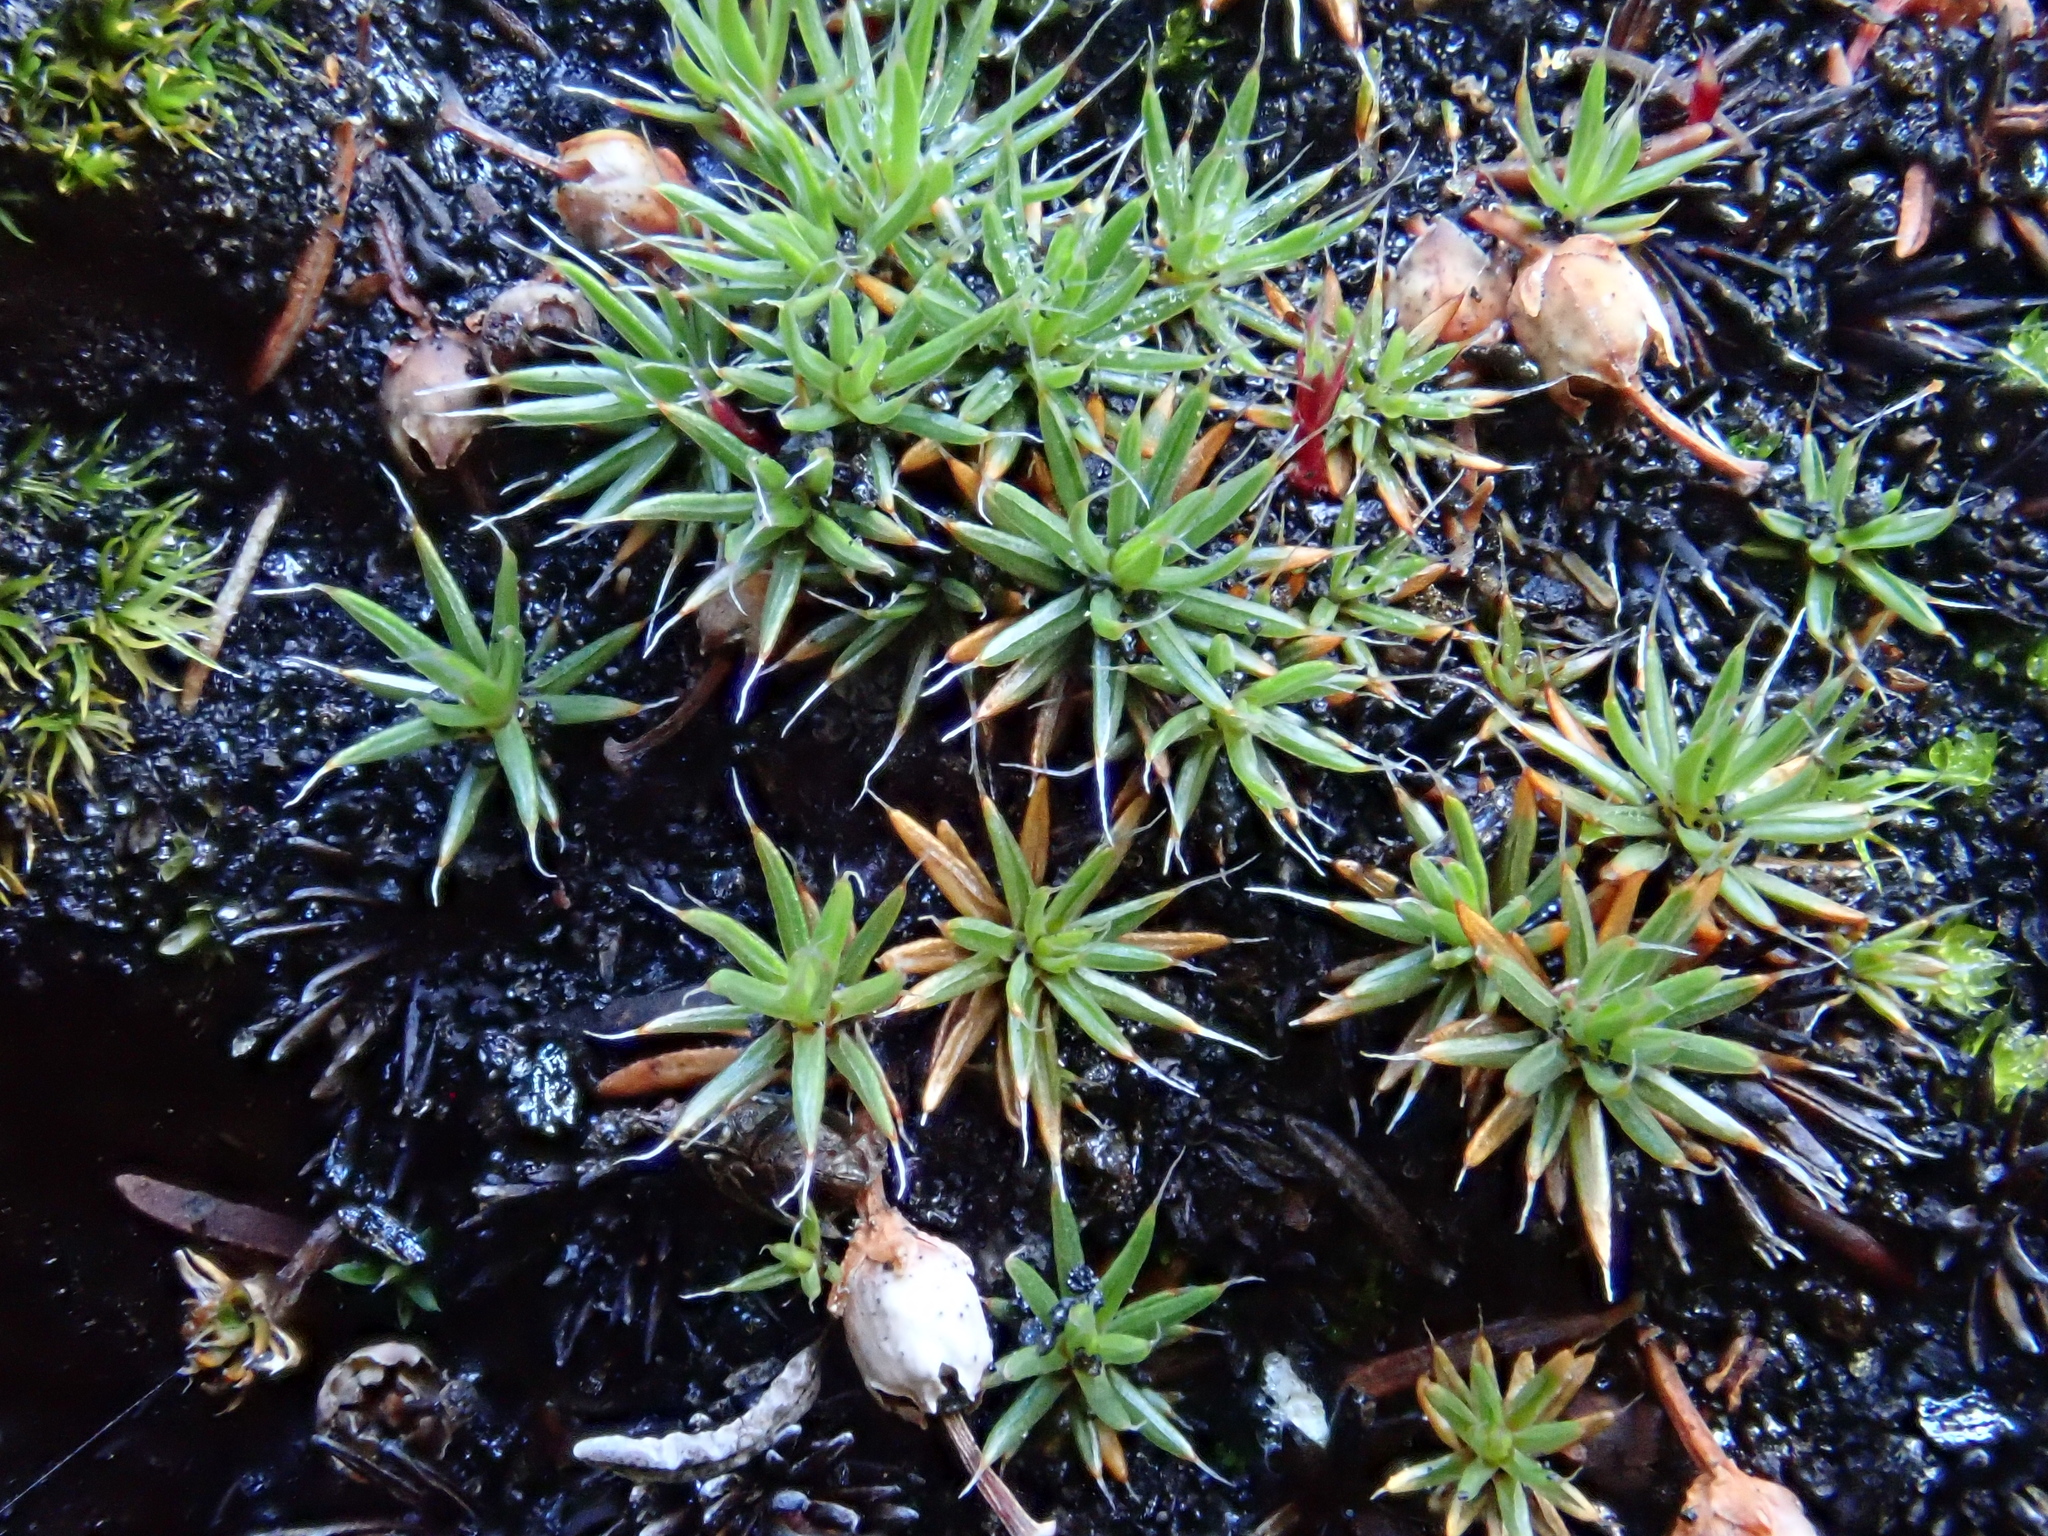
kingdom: Plantae
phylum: Bryophyta
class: Polytrichopsida
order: Polytrichales
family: Polytrichaceae
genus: Polytrichum
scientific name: Polytrichum piliferum
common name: Bristly haircap
